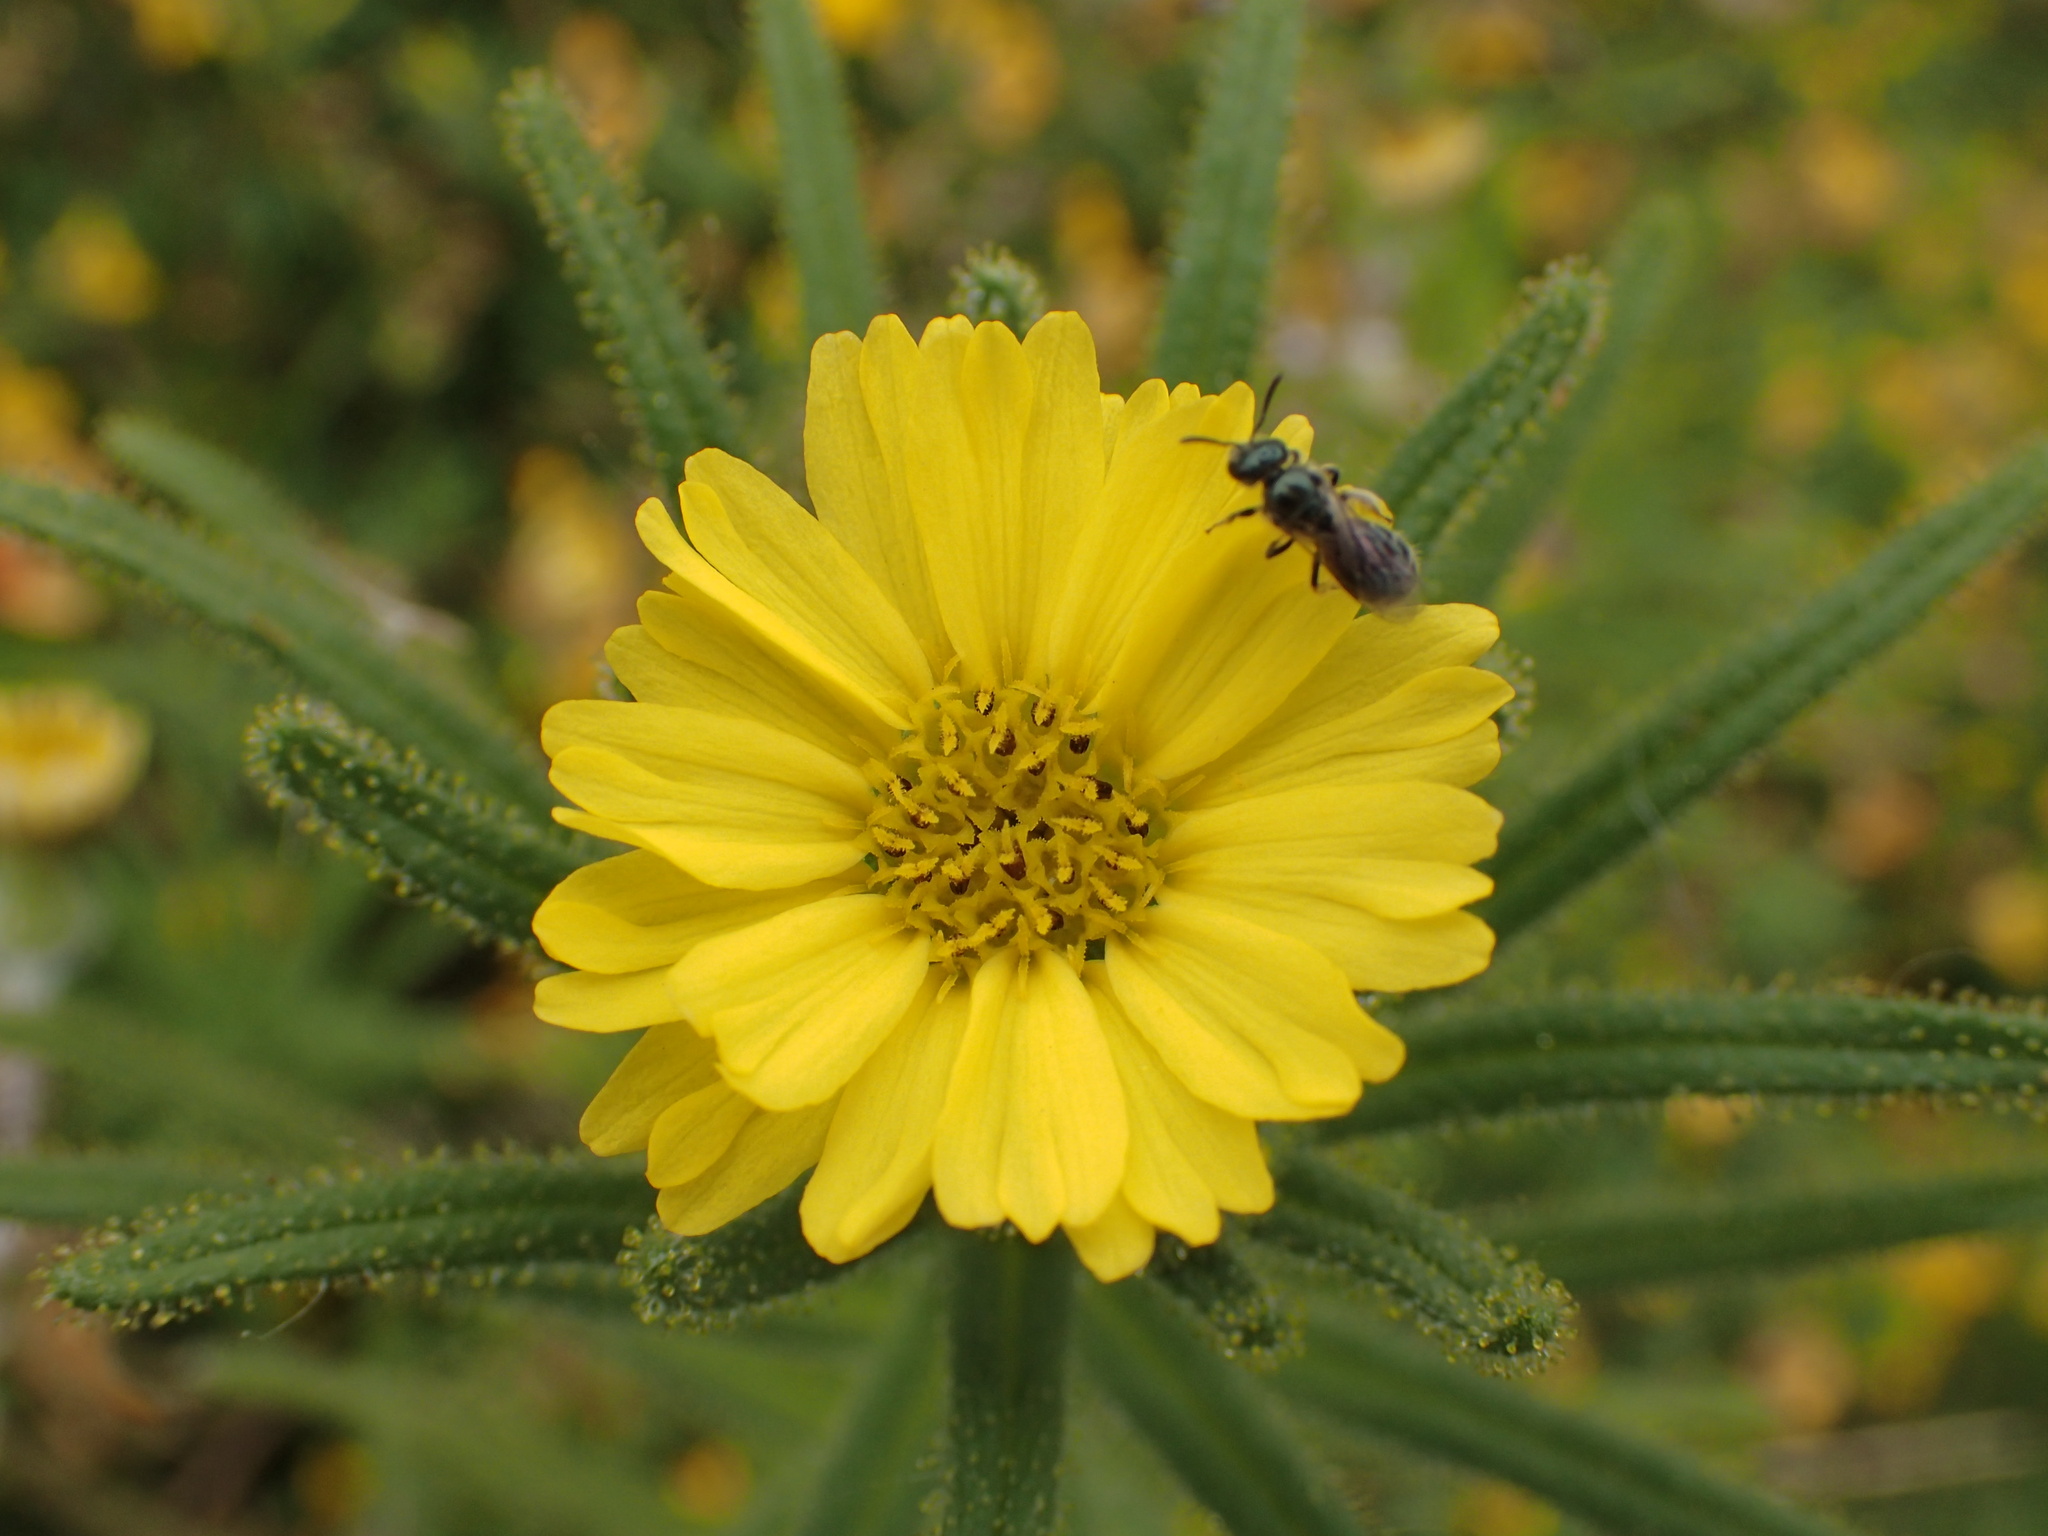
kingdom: Plantae
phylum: Tracheophyta
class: Magnoliopsida
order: Asterales
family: Asteraceae
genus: Madia
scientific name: Madia sativa
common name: Coast tarweed
